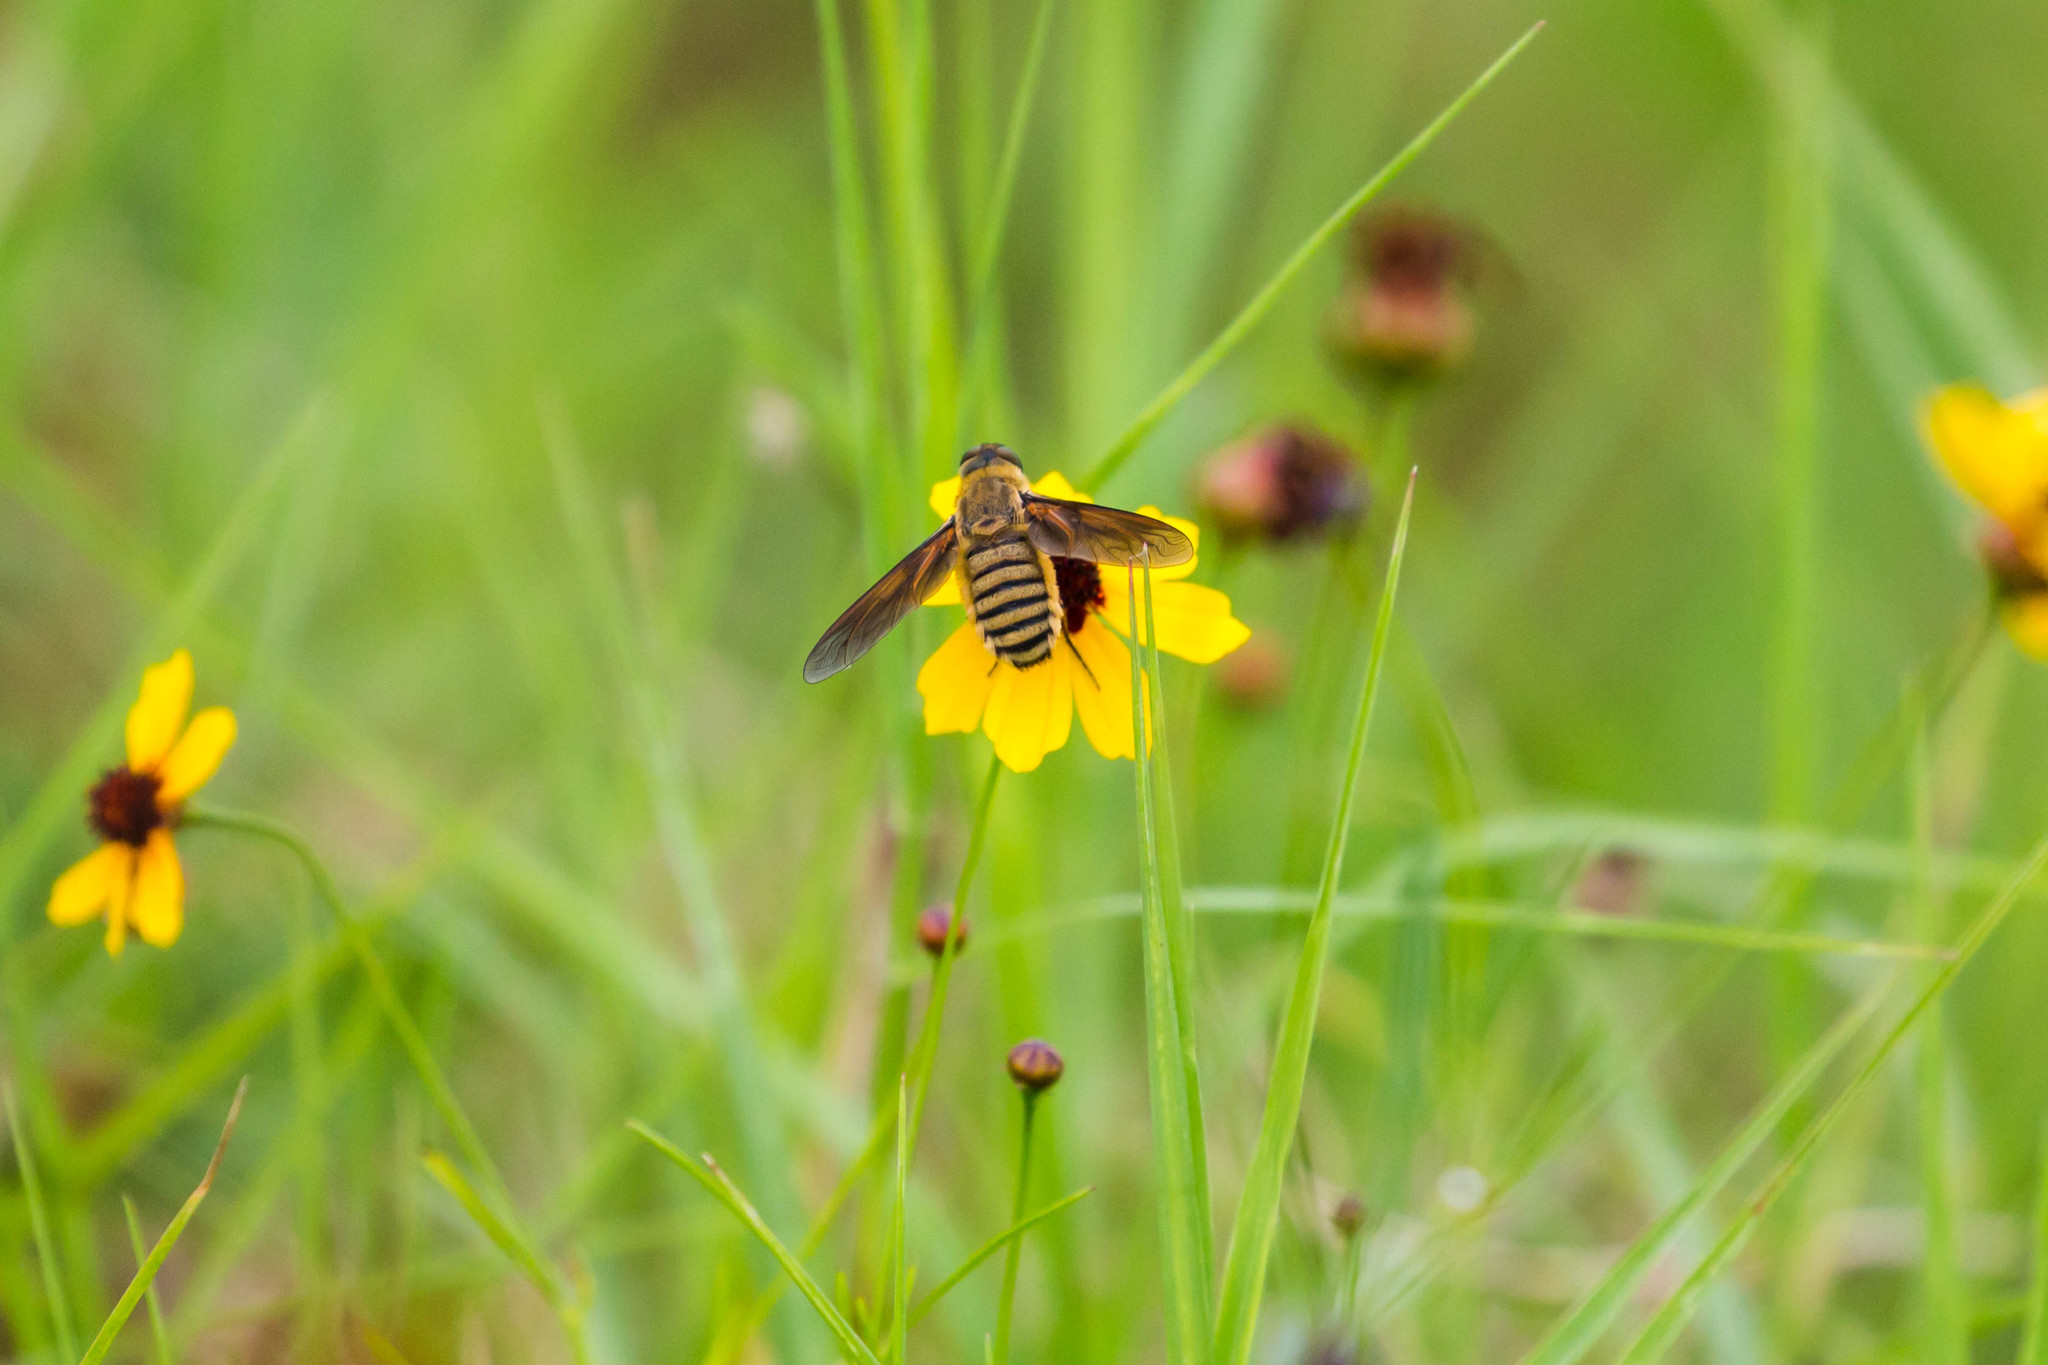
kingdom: Animalia
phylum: Arthropoda
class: Insecta
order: Diptera
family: Bombyliidae
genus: Poecilanthrax
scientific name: Poecilanthrax lucifer
